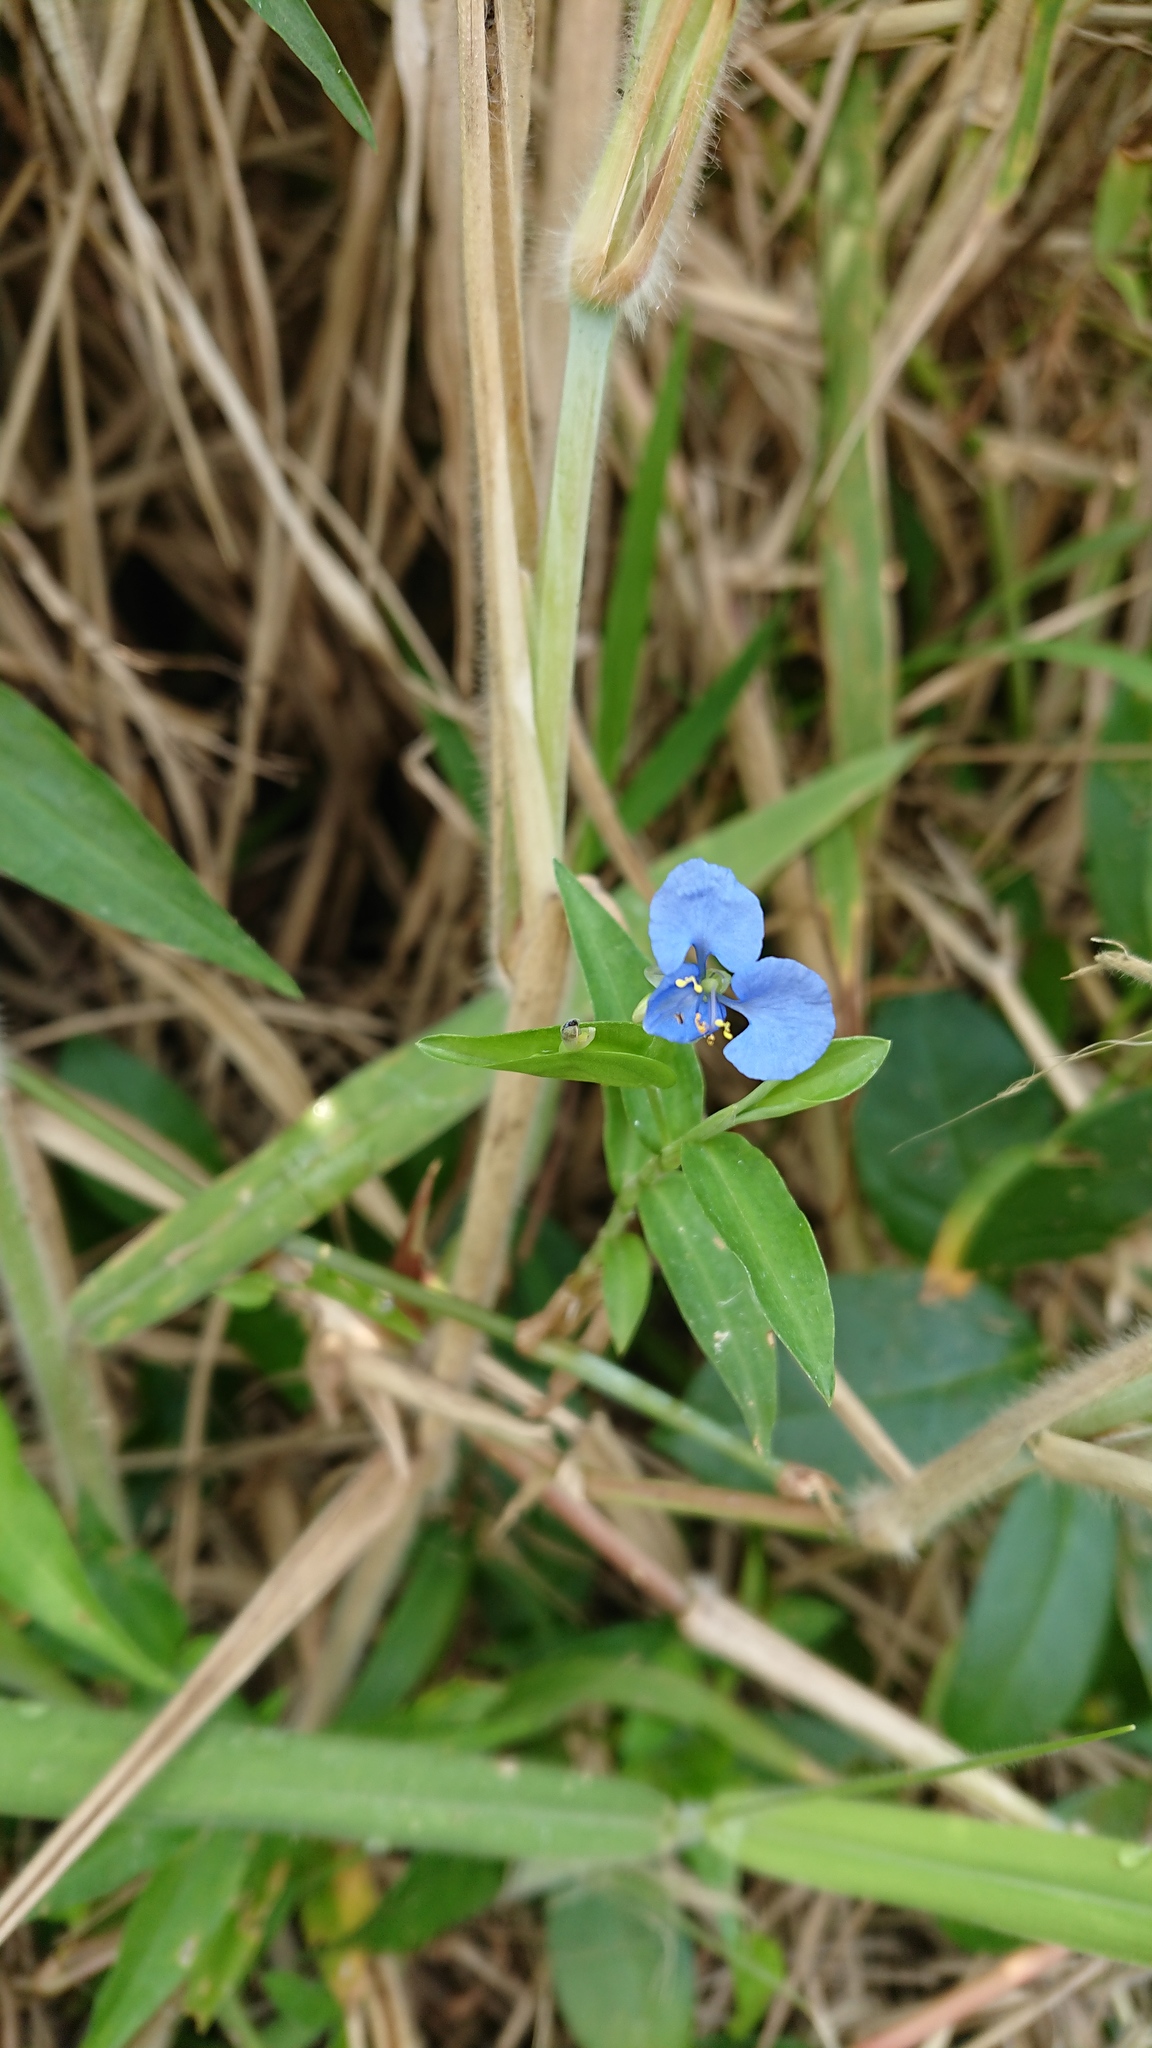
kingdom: Plantae
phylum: Tracheophyta
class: Liliopsida
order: Commelinales
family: Commelinaceae
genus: Commelina
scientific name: Commelina diffusa
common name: Climbing dayflower
